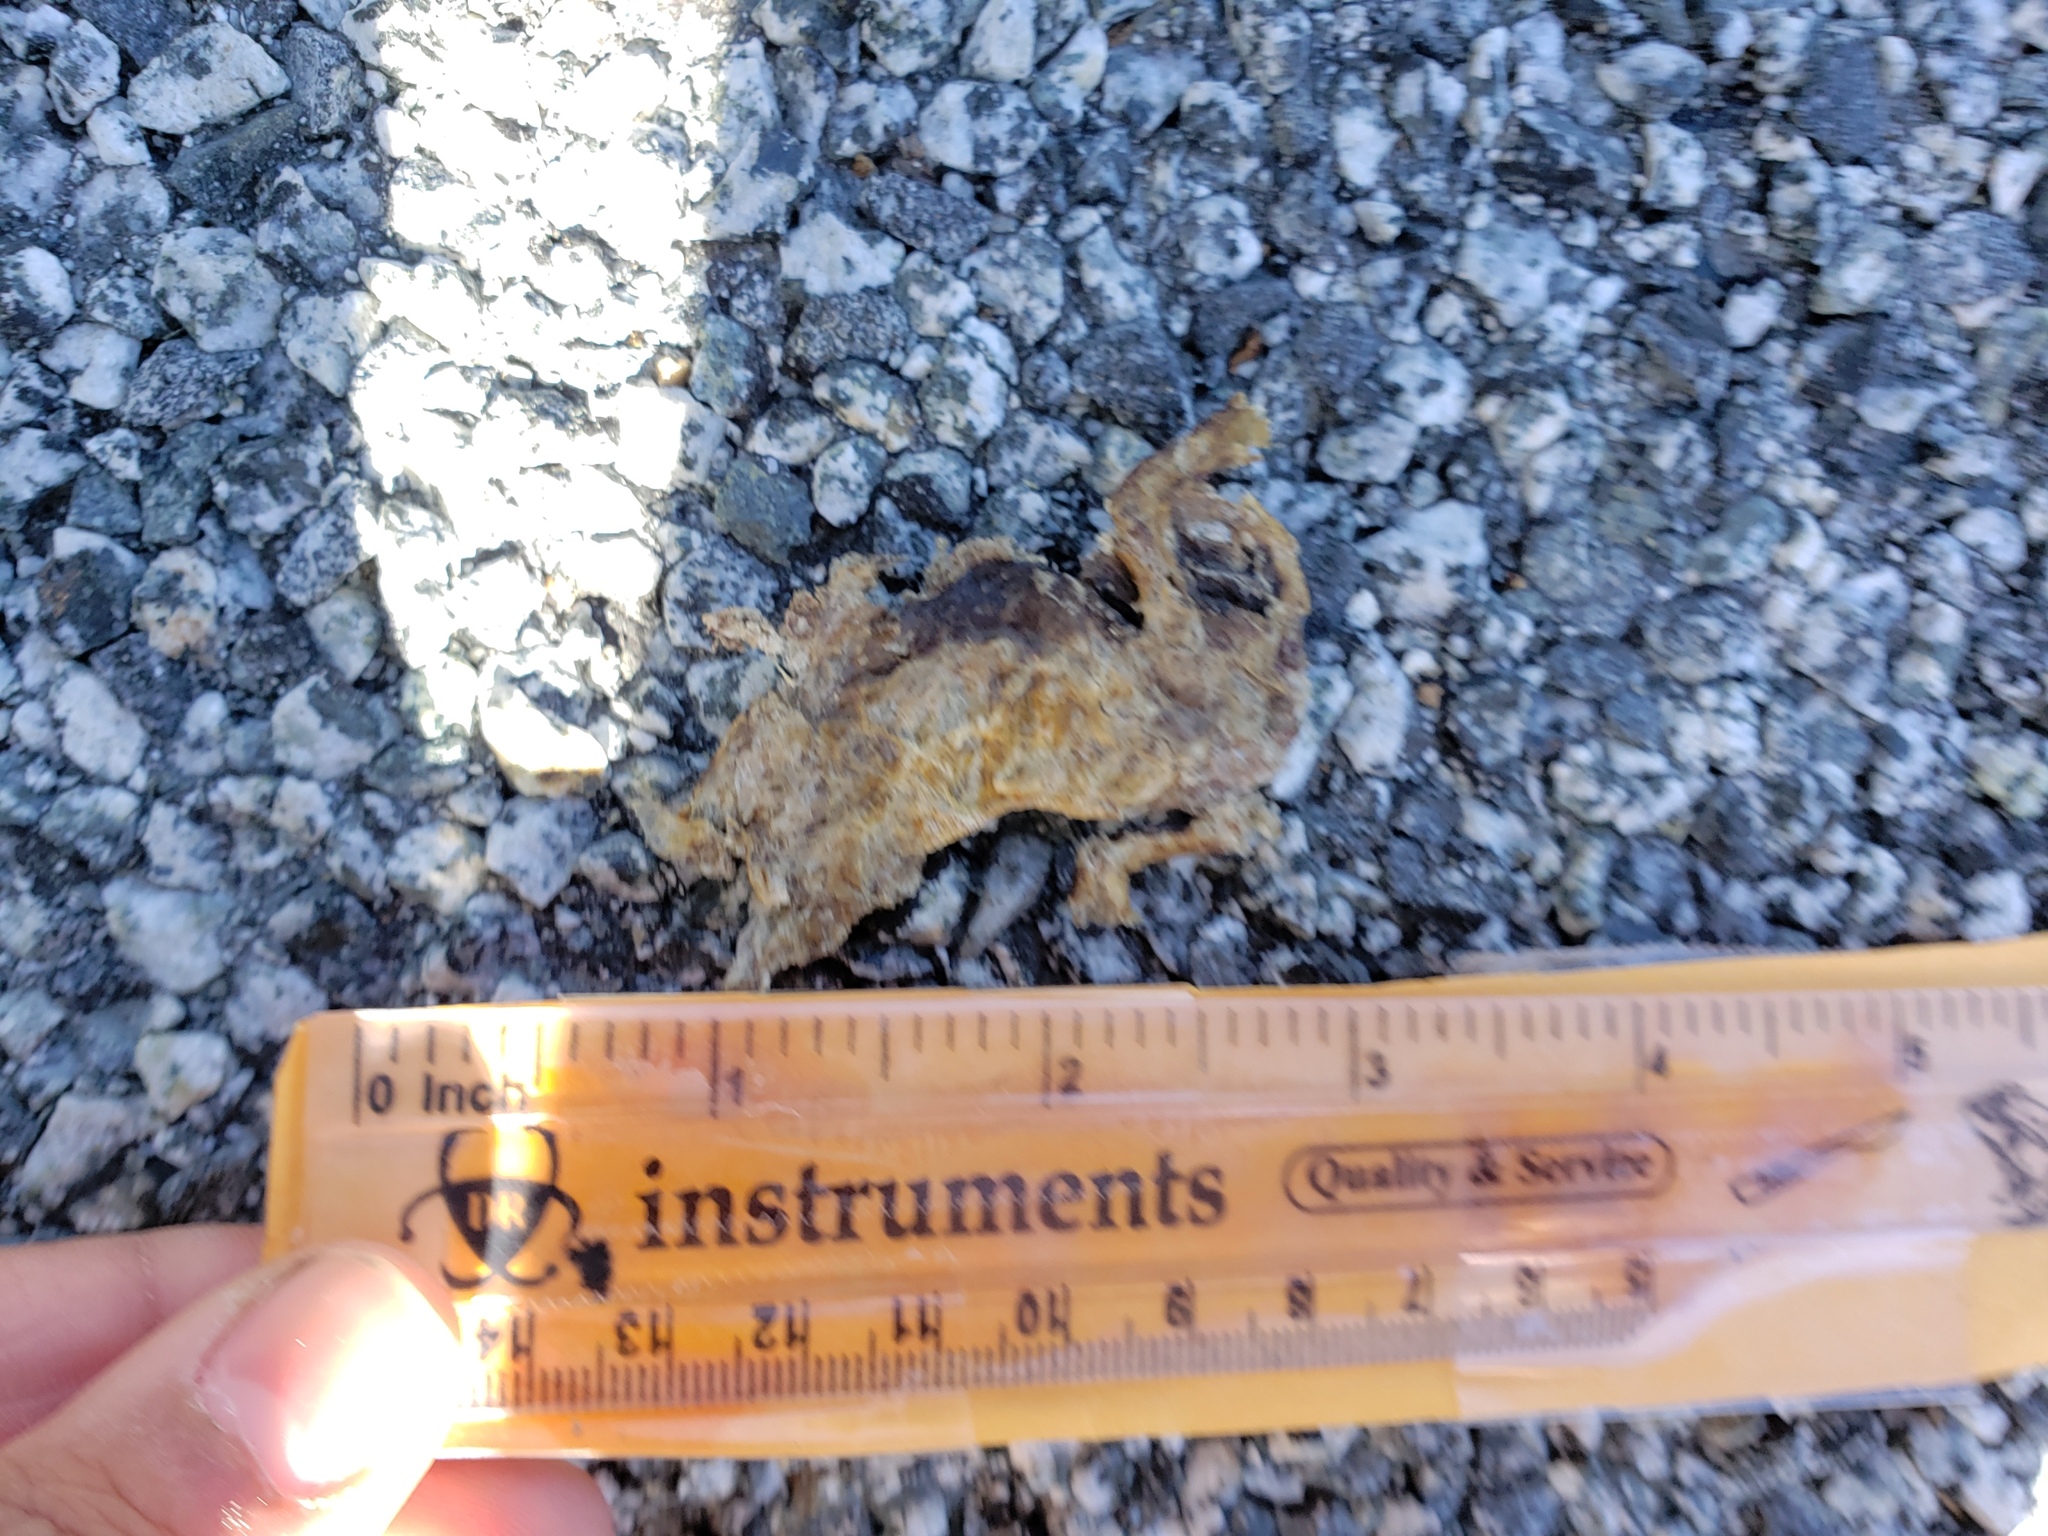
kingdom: Animalia
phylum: Chordata
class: Amphibia
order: Caudata
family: Salamandridae
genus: Taricha
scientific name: Taricha
